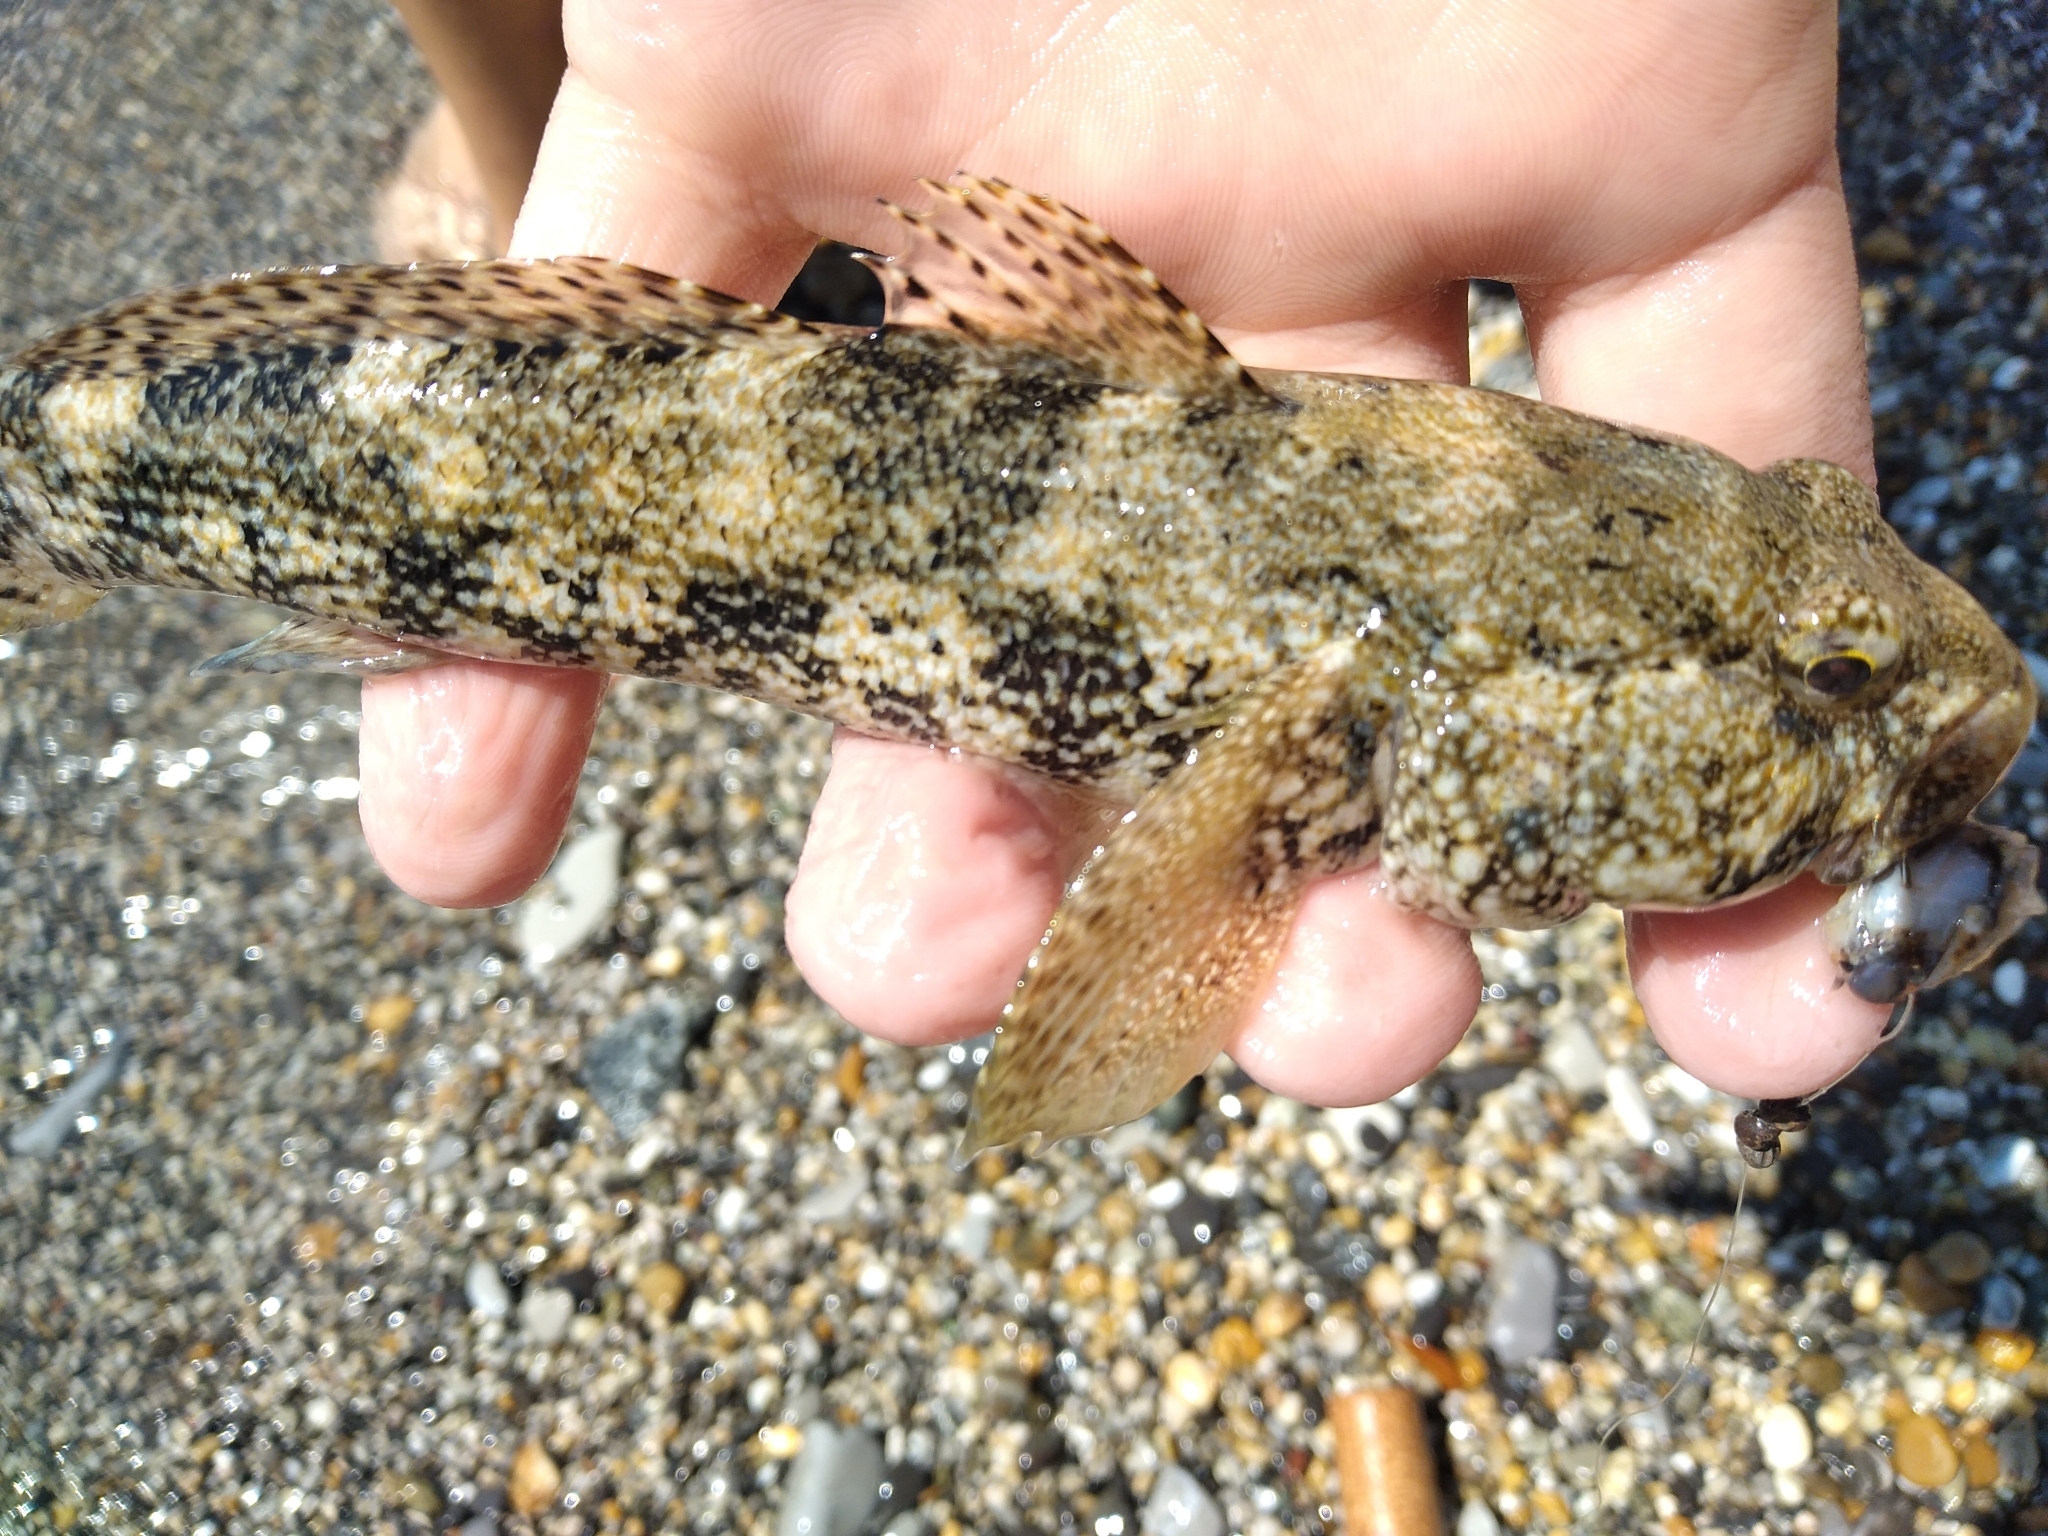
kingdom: Animalia
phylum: Chordata
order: Perciformes
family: Gobiidae
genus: Gobius
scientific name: Gobius cobitis
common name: Giant goby
